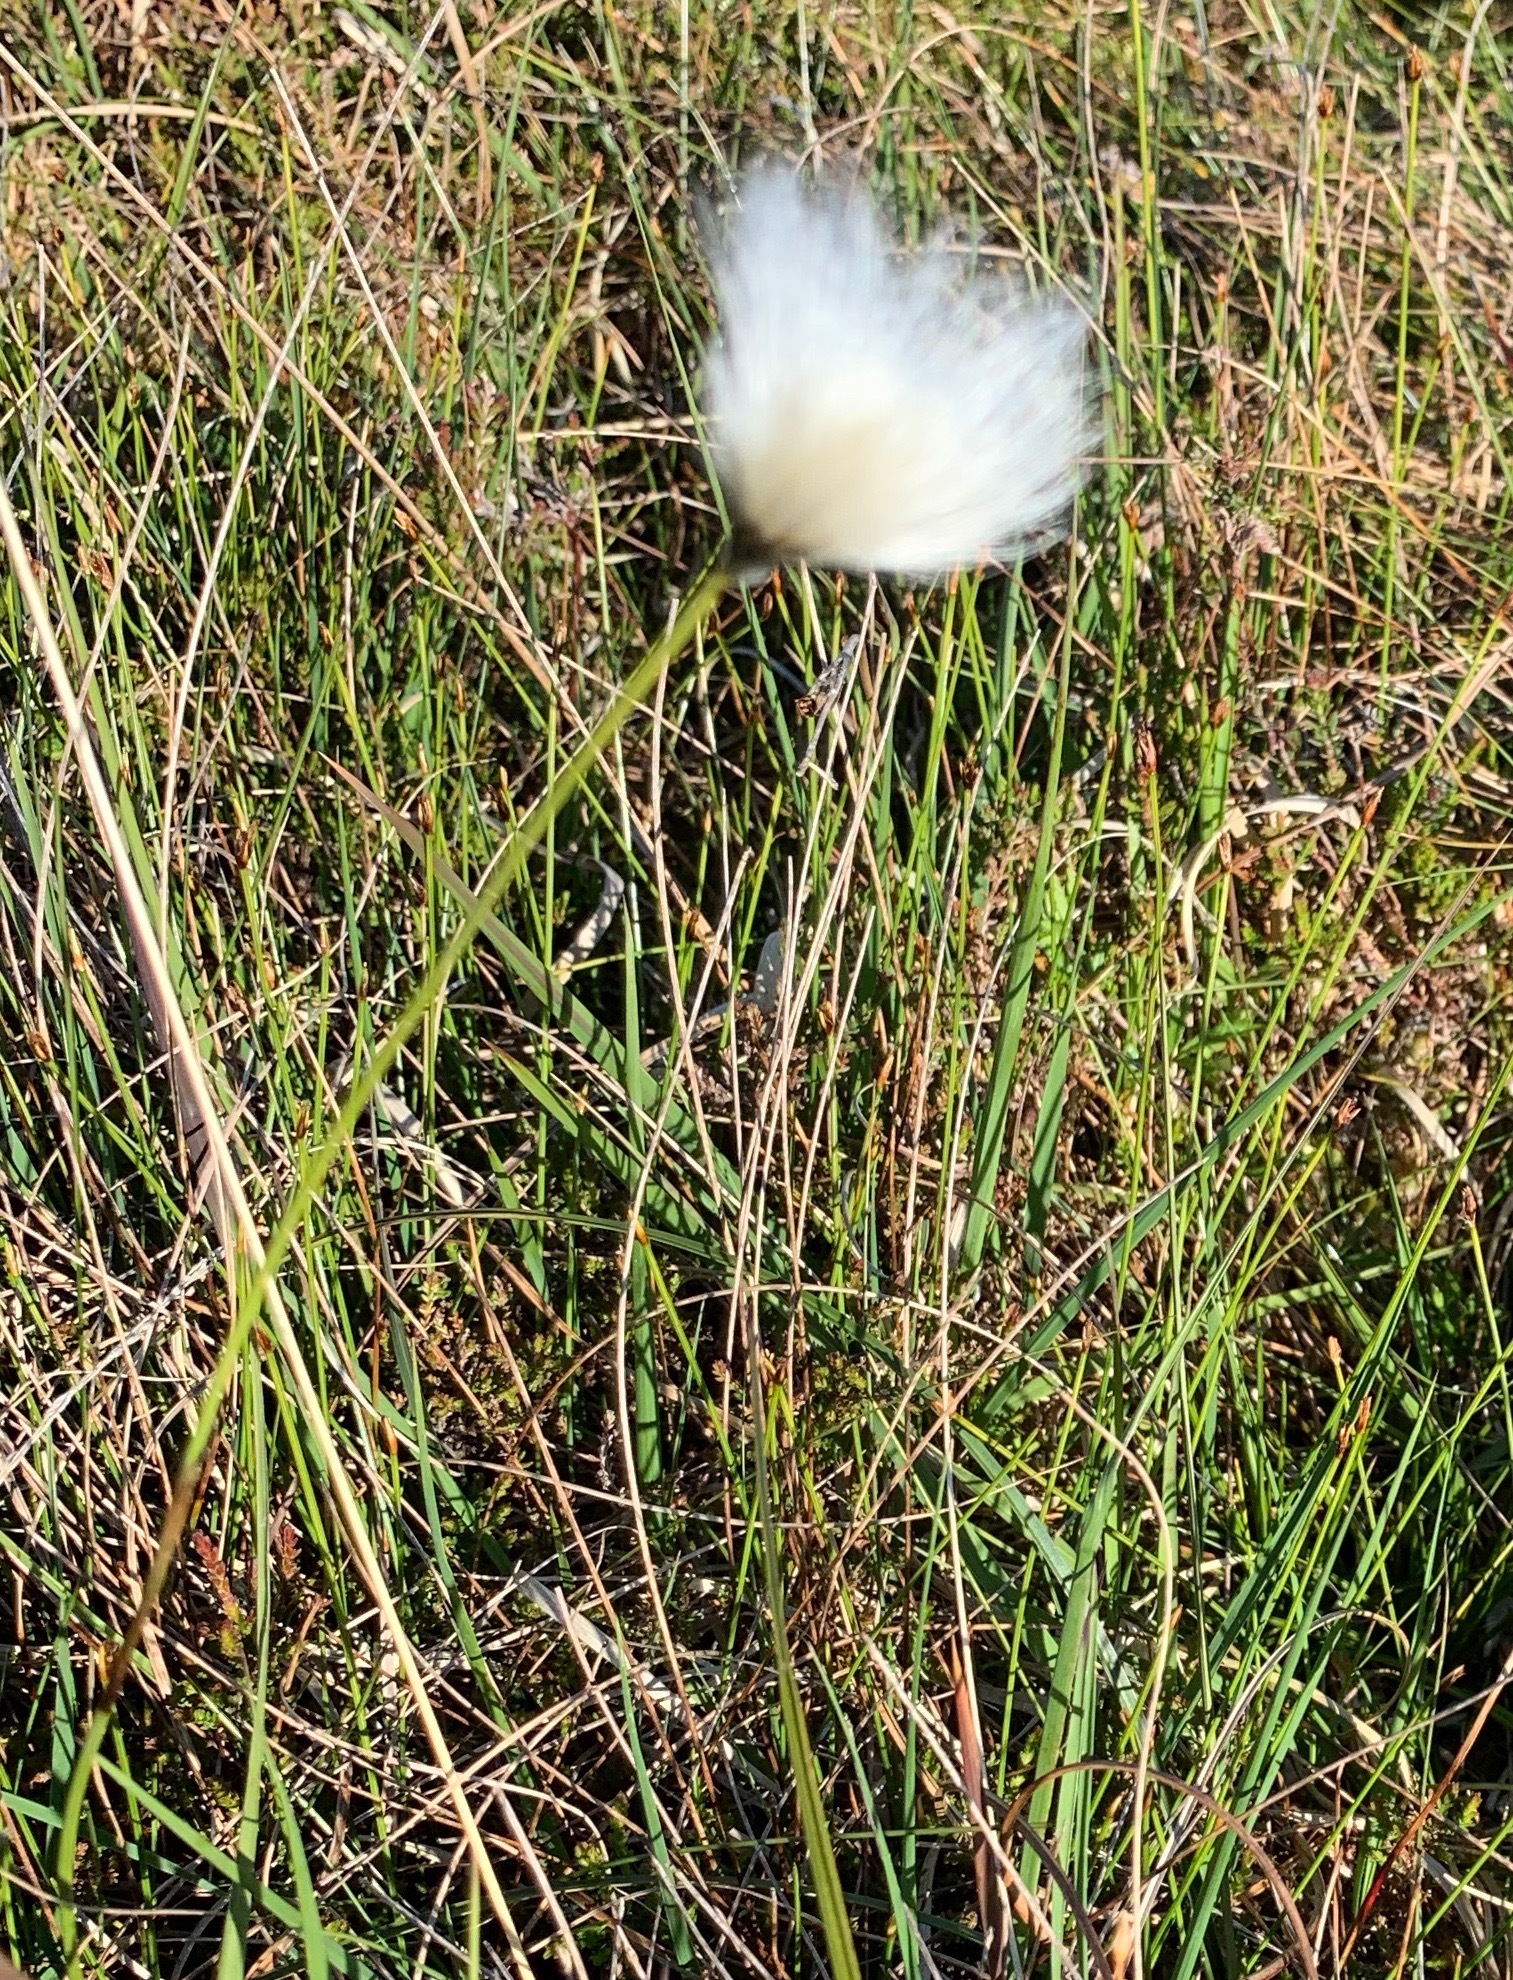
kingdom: Plantae
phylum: Tracheophyta
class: Liliopsida
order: Poales
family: Cyperaceae
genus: Eriophorum
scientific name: Eriophorum vaginatum
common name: Hare's-tail cottongrass
